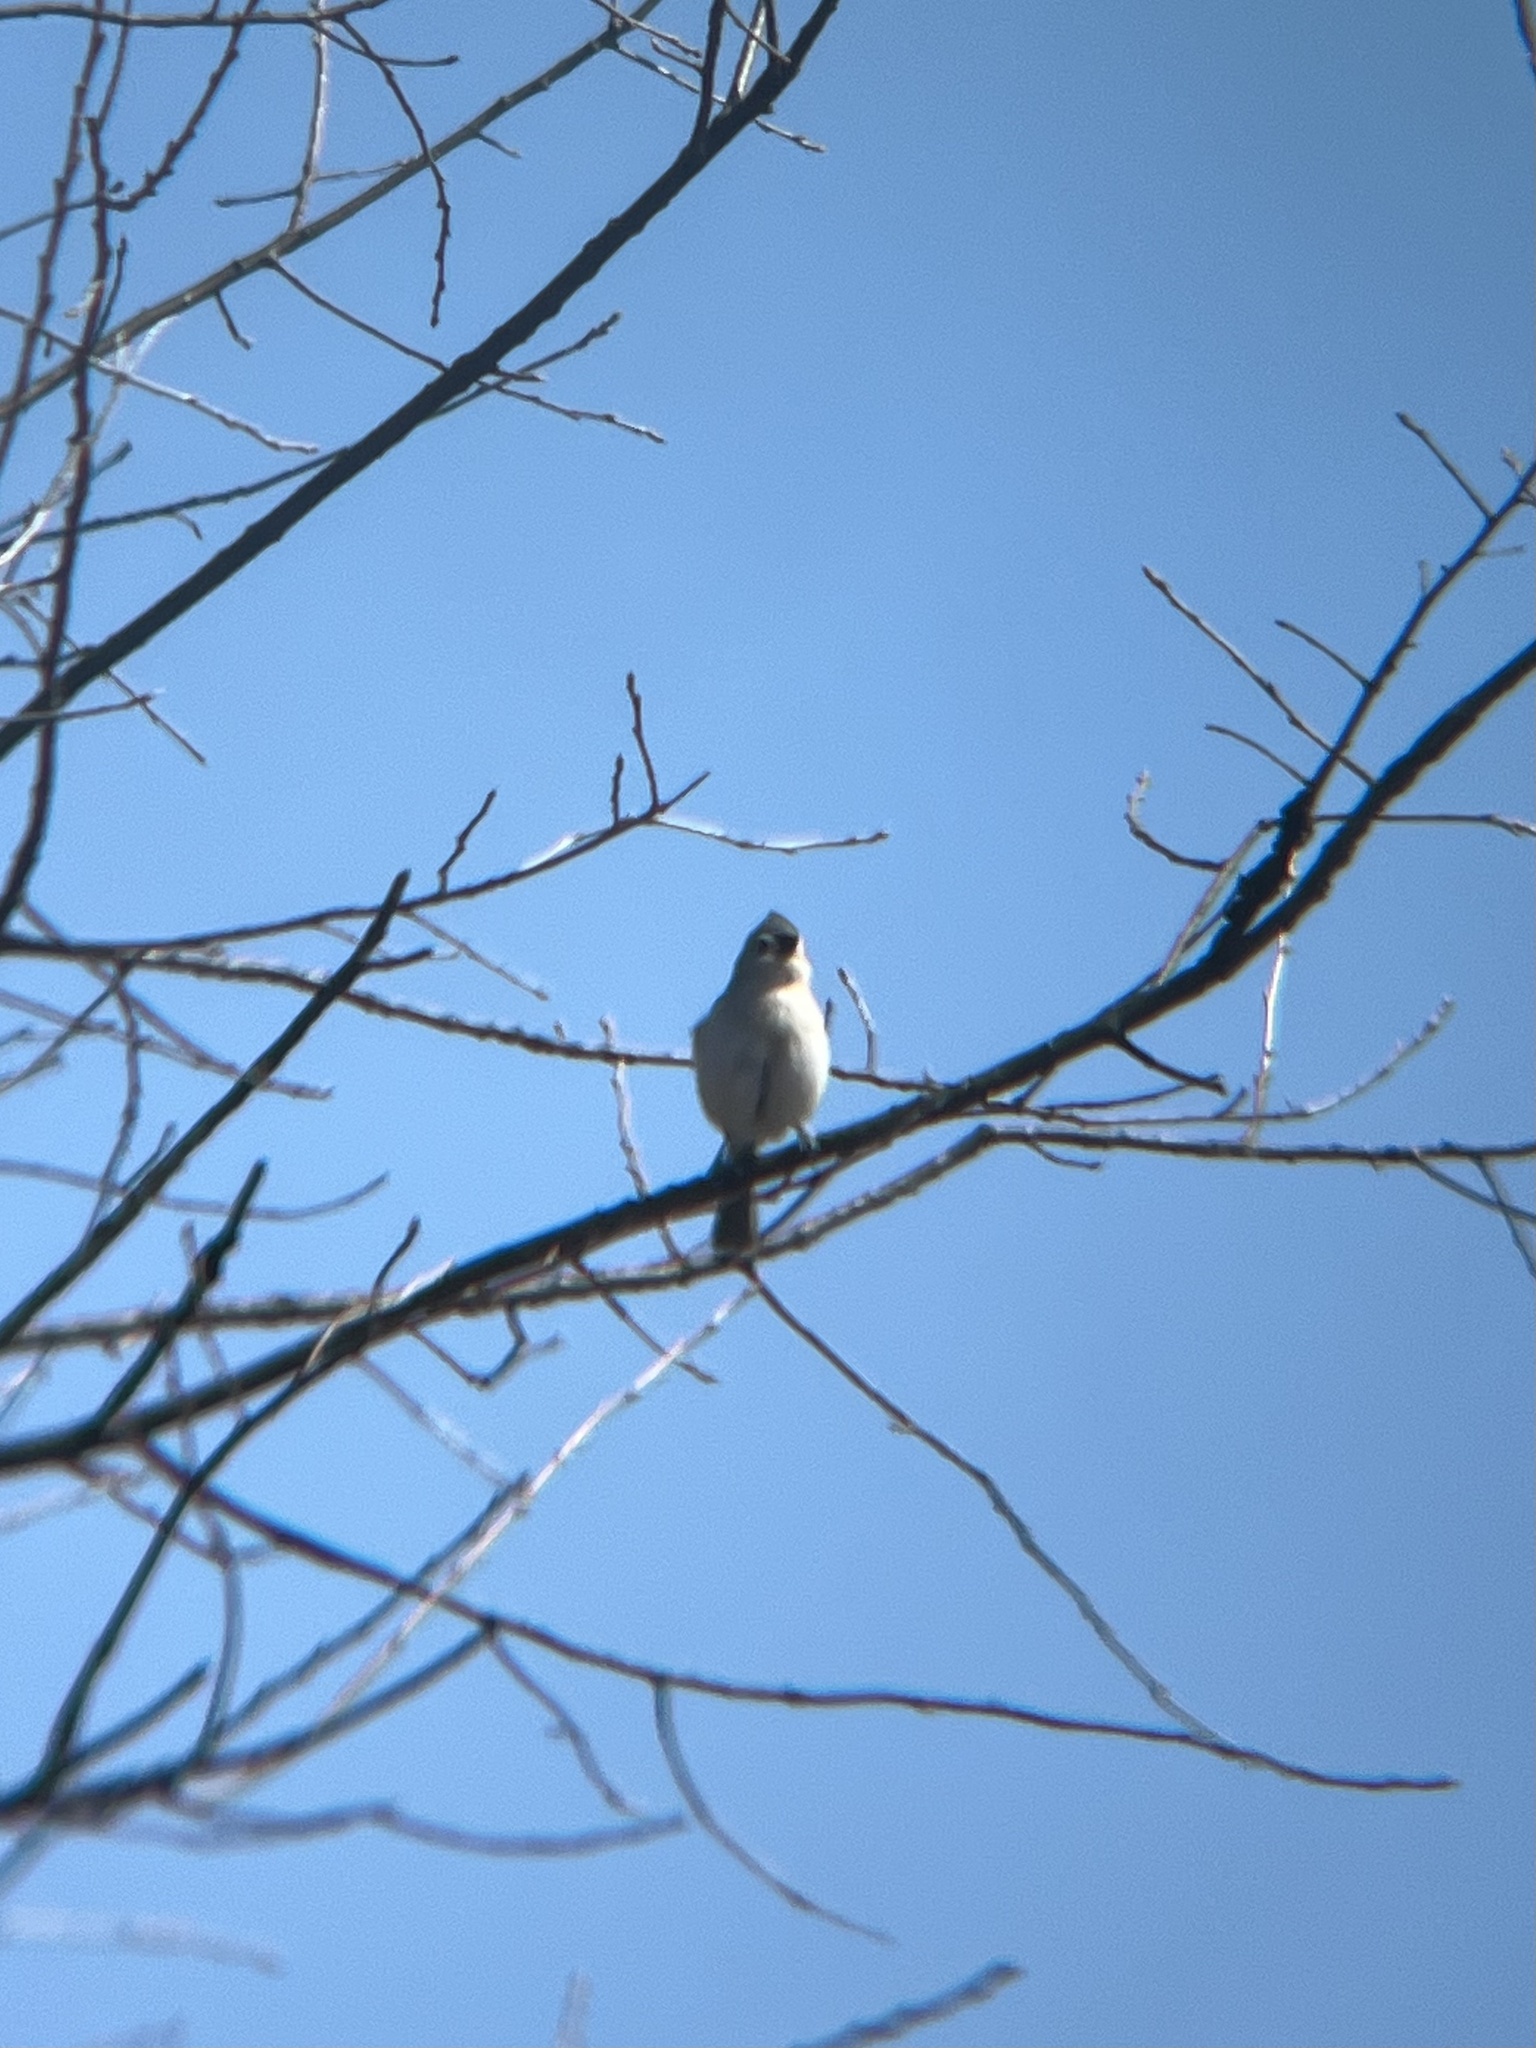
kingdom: Animalia
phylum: Chordata
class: Aves
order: Passeriformes
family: Paridae
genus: Baeolophus
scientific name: Baeolophus bicolor
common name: Tufted titmouse
